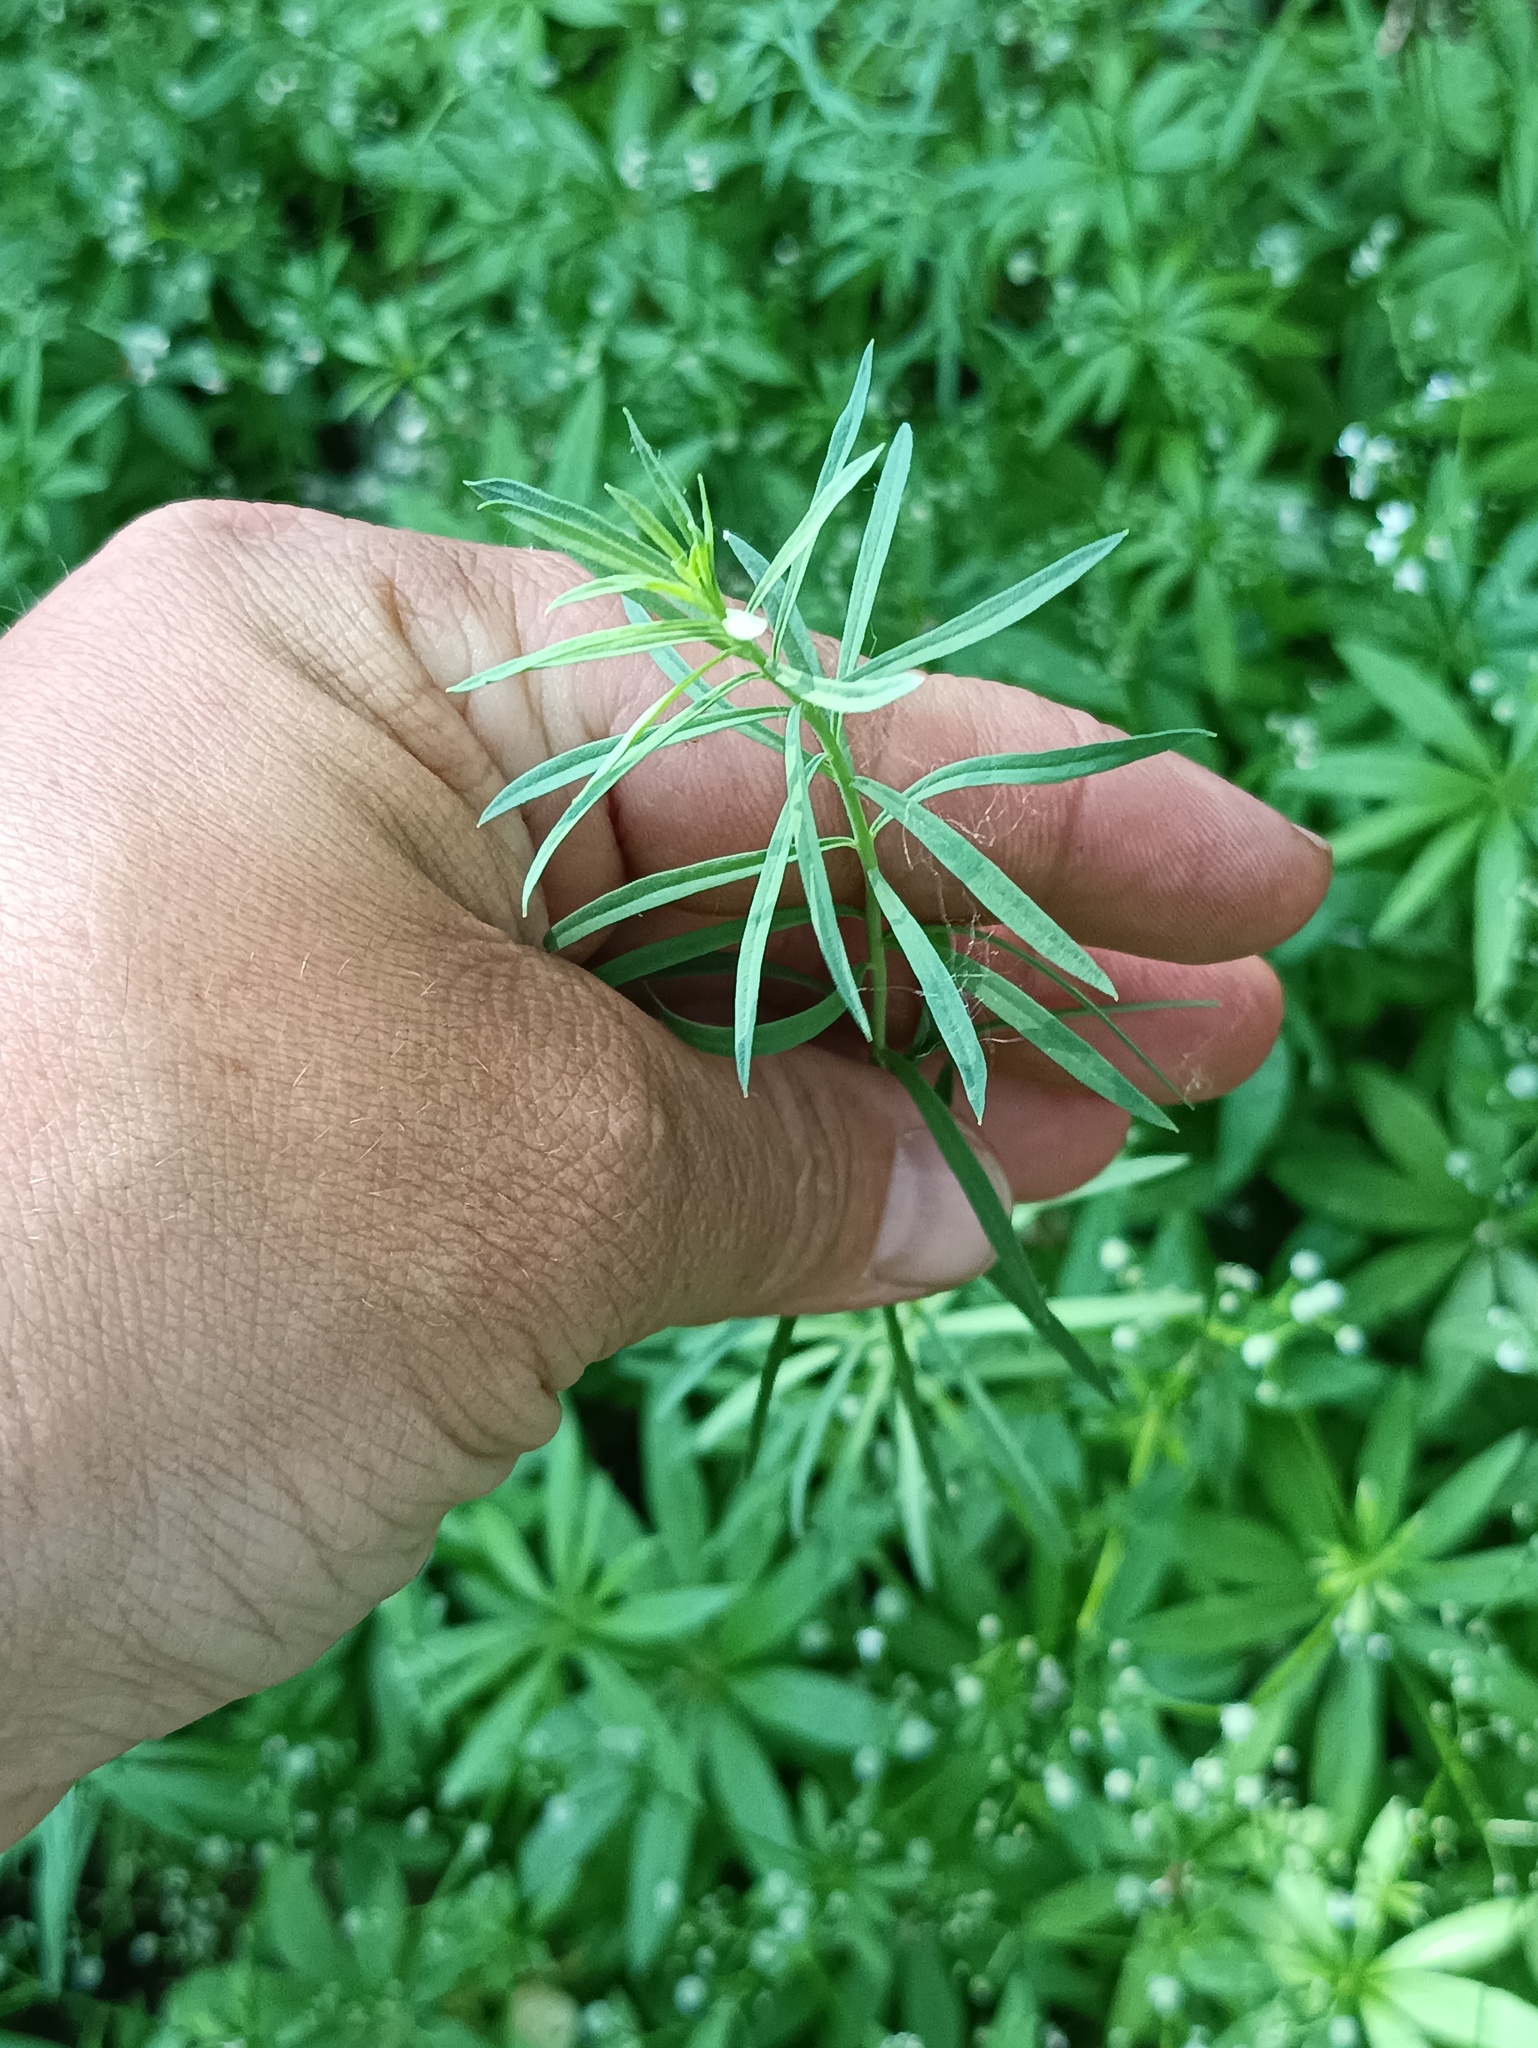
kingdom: Plantae
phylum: Tracheophyta
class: Magnoliopsida
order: Lamiales
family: Plantaginaceae
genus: Linaria
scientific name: Linaria vulgaris
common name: Butter and eggs
